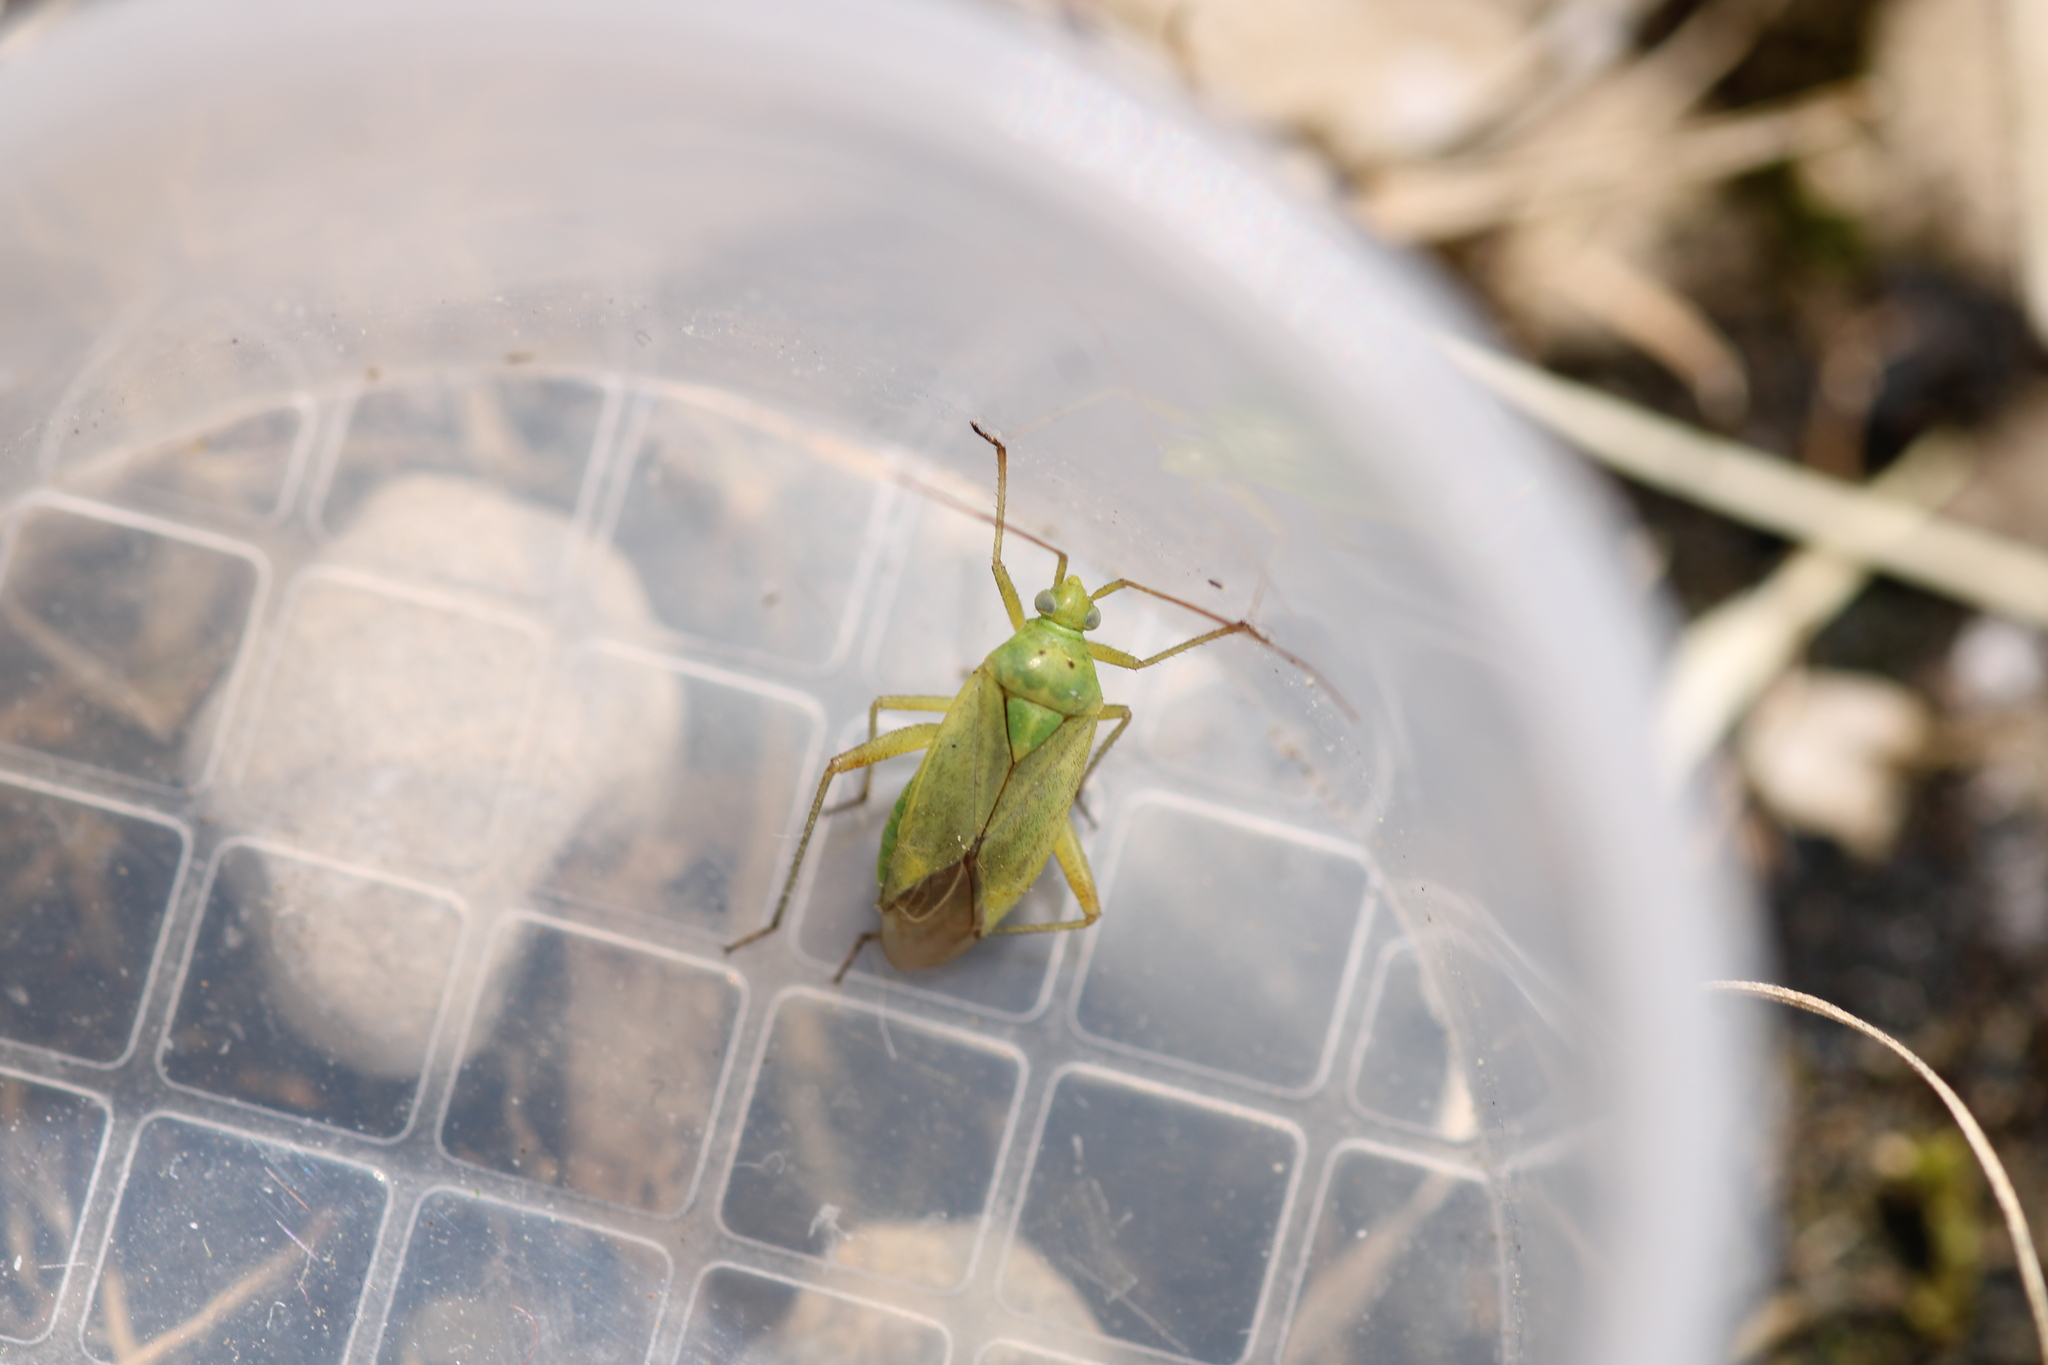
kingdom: Animalia
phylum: Arthropoda
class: Insecta
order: Hemiptera
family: Miridae
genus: Closterotomus
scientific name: Closterotomus norvegicus
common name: Plant bug
